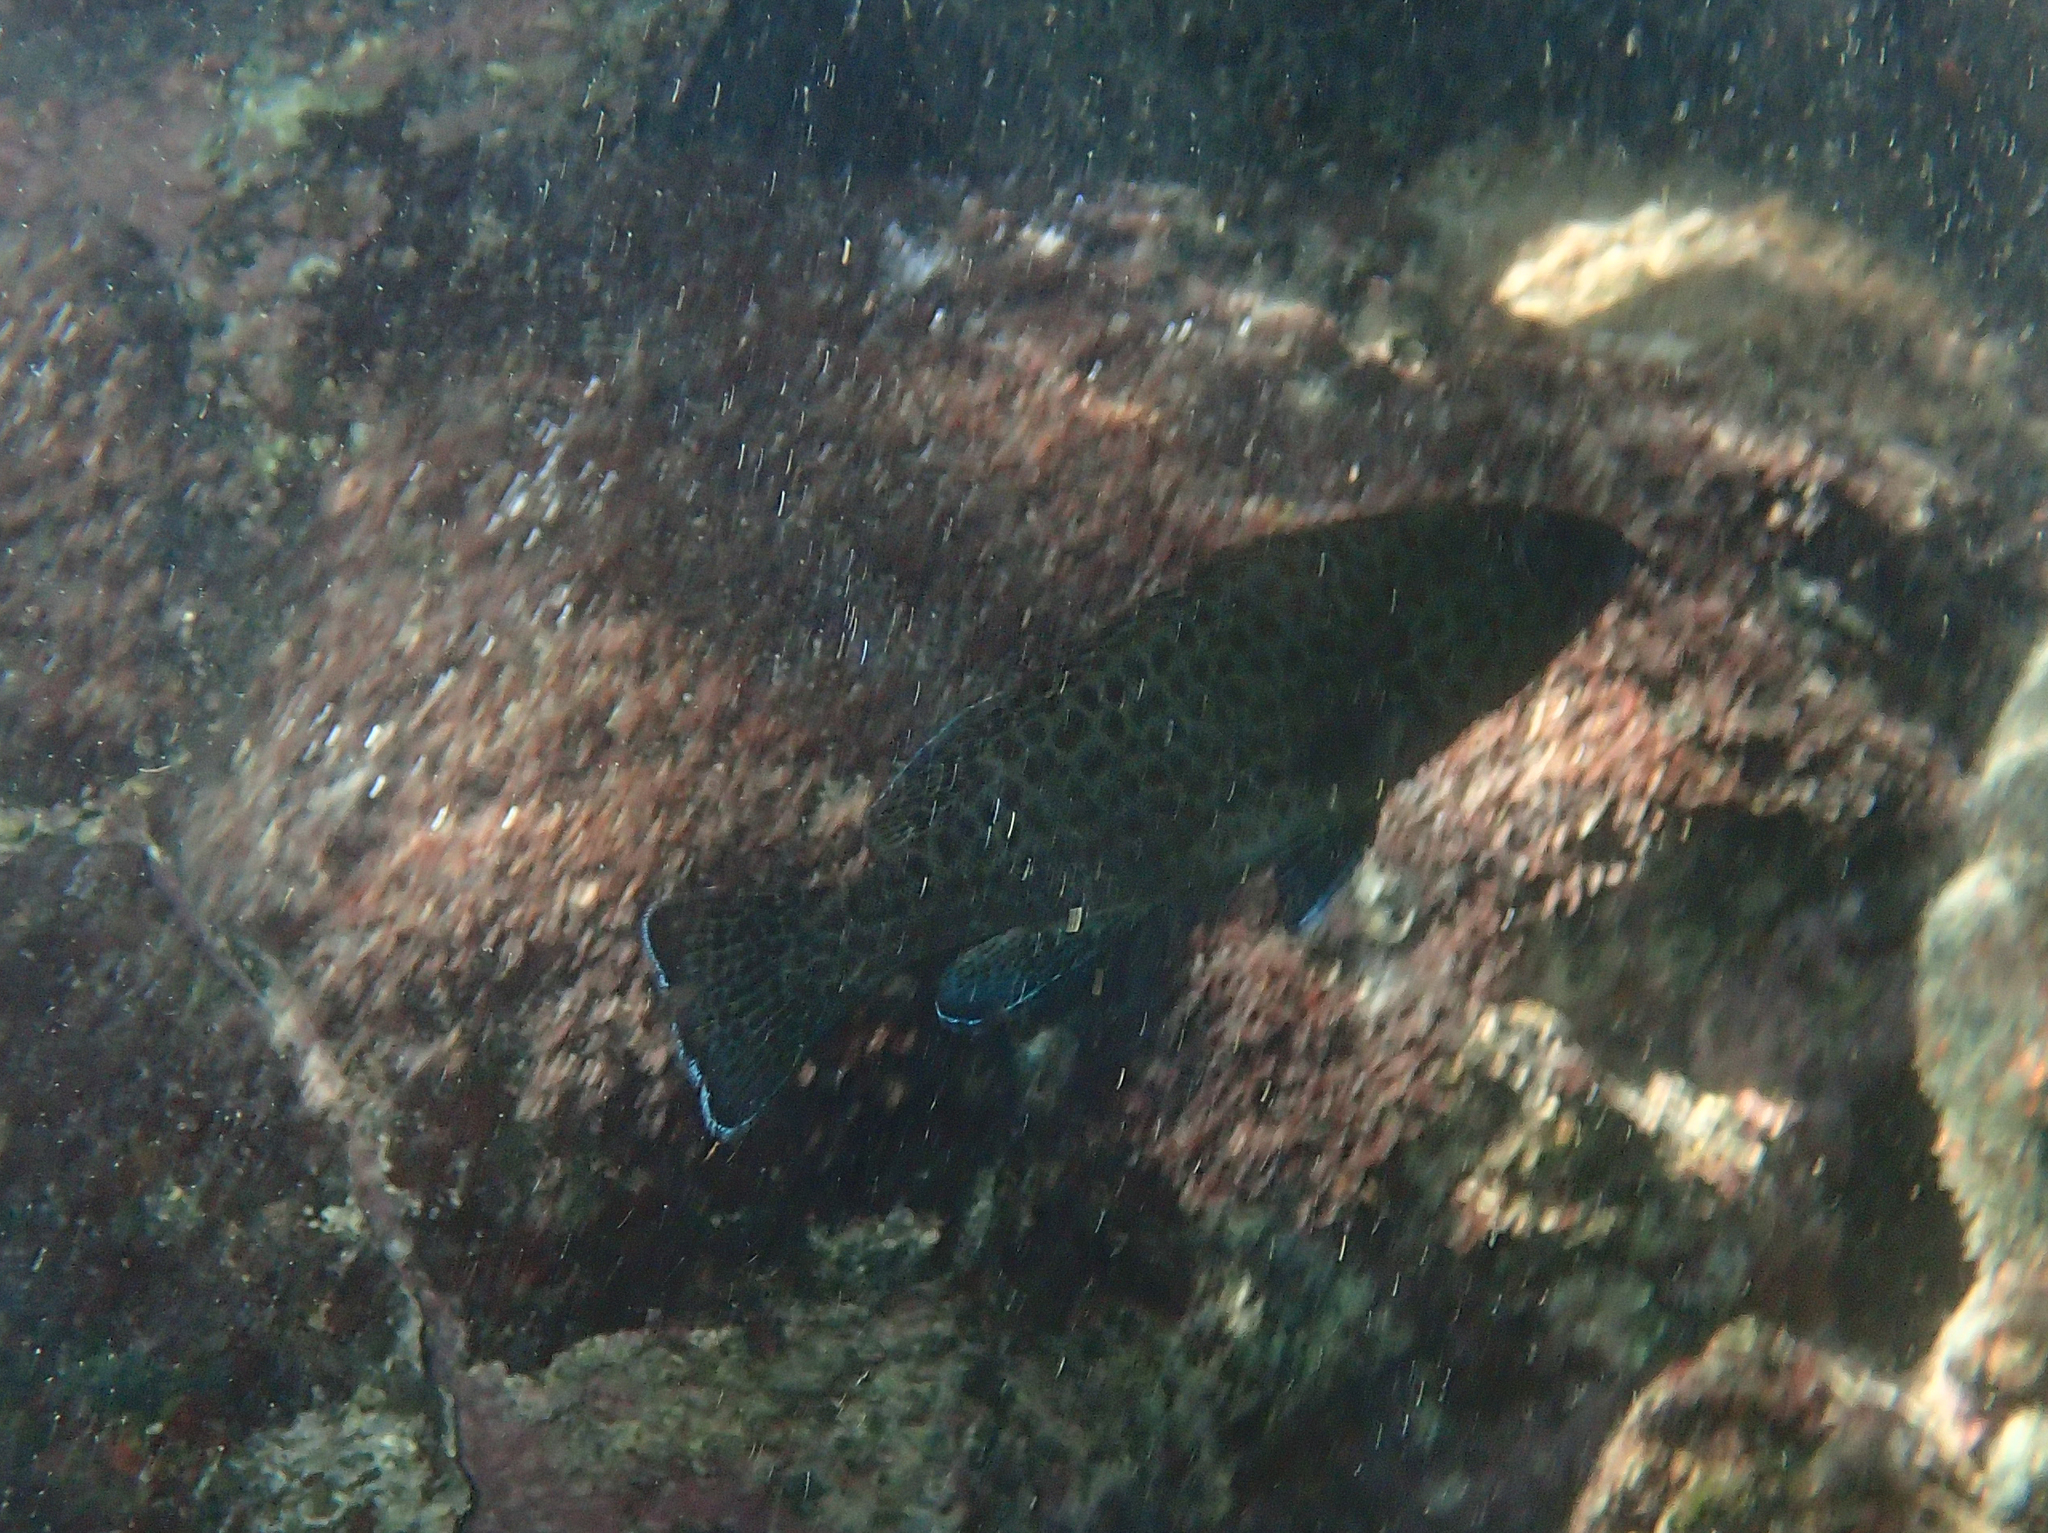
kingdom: Animalia
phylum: Chordata
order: Perciformes
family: Serranidae
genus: Epinephelus
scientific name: Epinephelus analogus
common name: Spotted cabrilla
